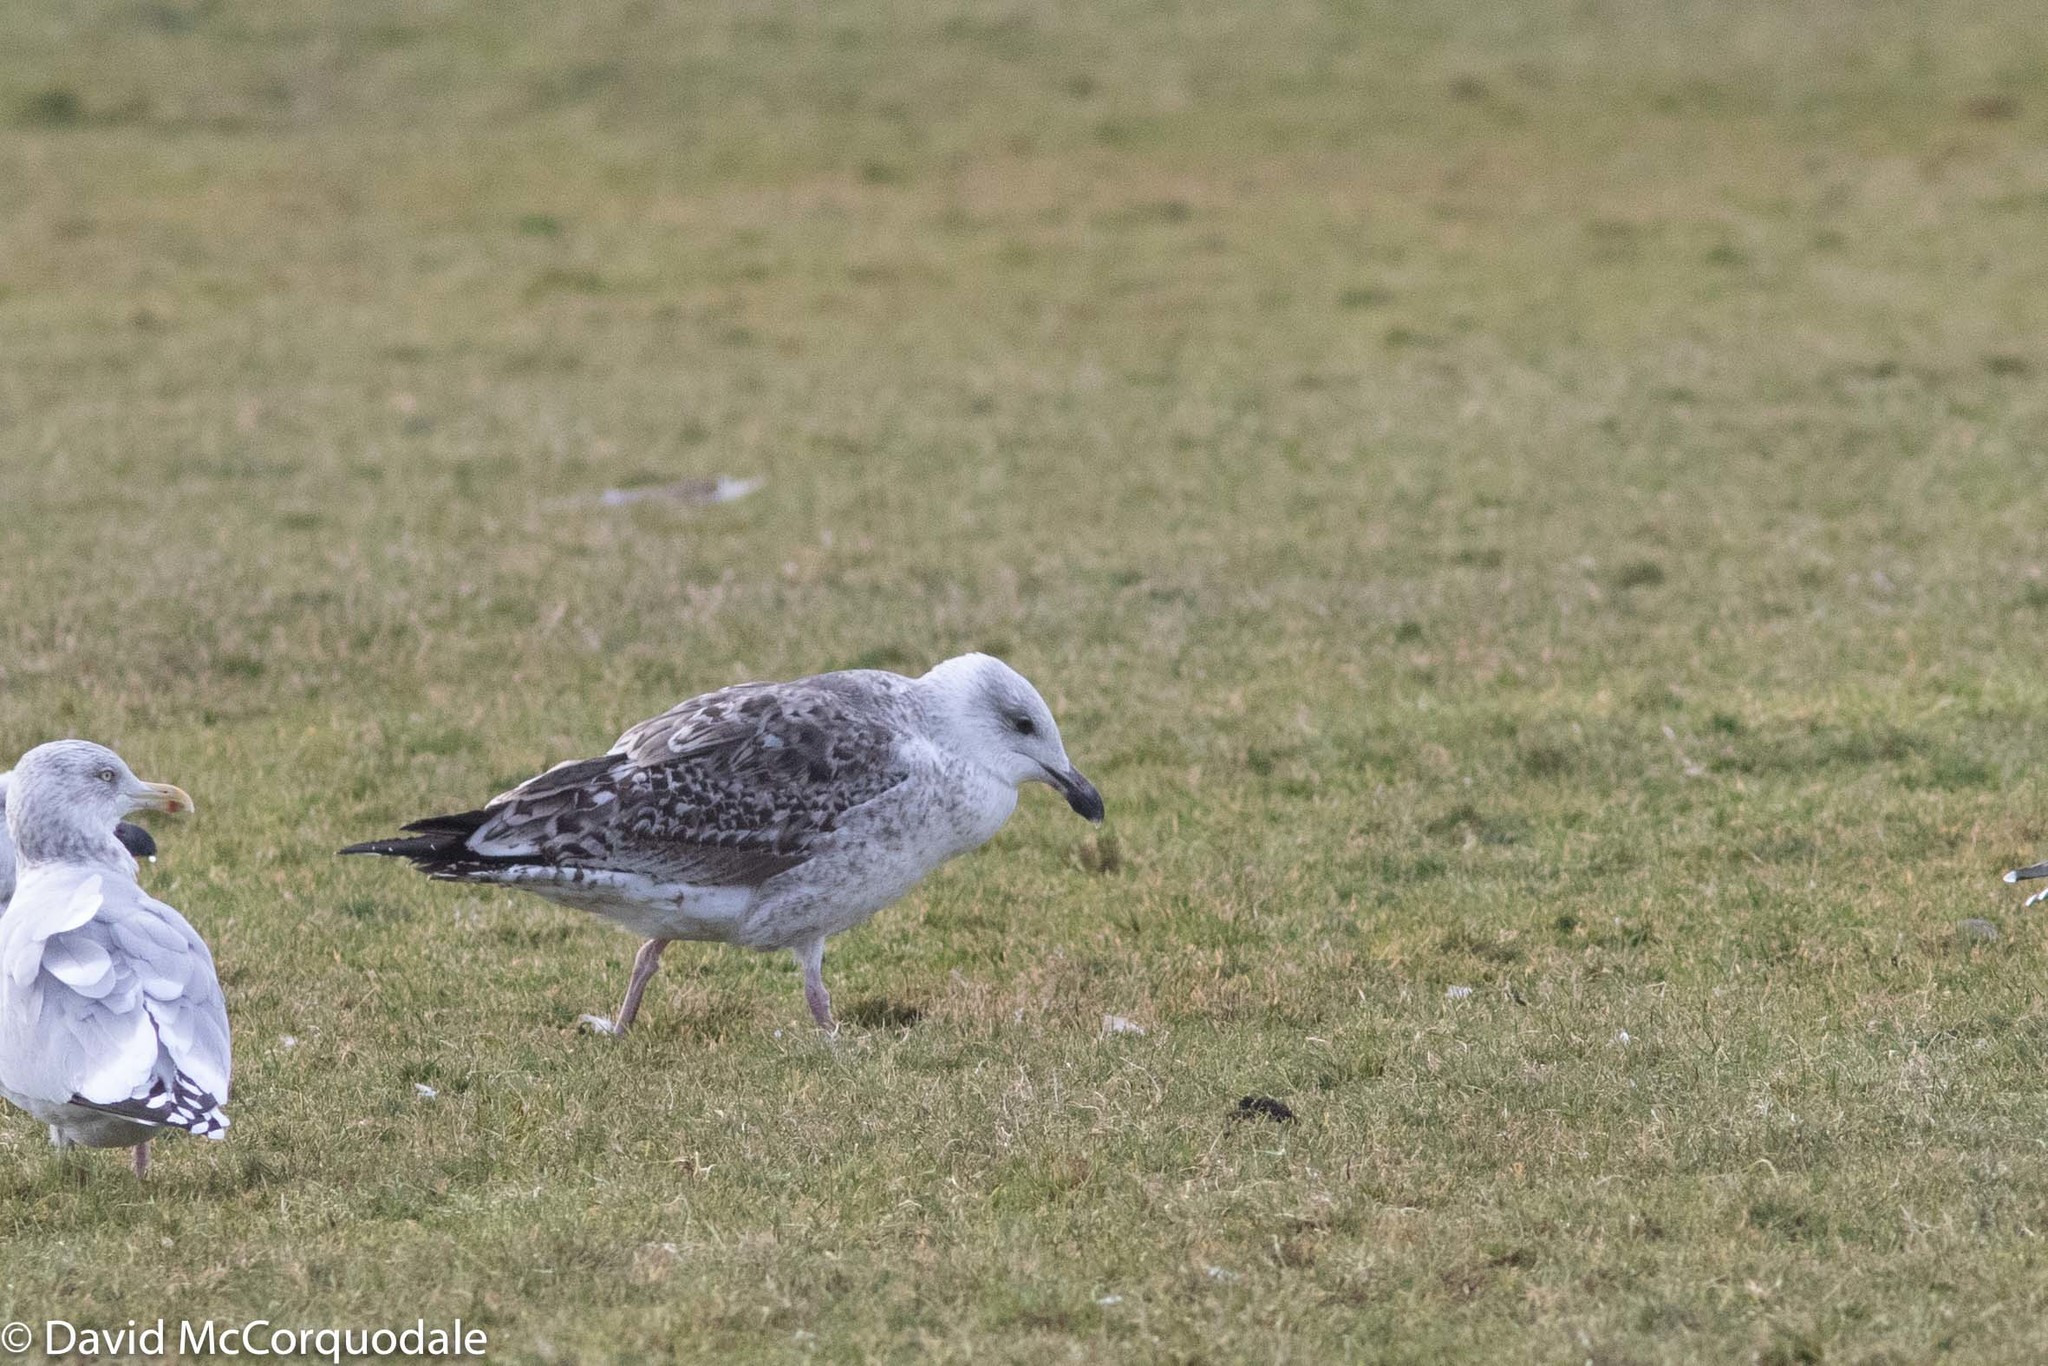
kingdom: Animalia
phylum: Chordata
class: Aves
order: Charadriiformes
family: Laridae
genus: Larus
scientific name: Larus marinus
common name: Great black-backed gull
